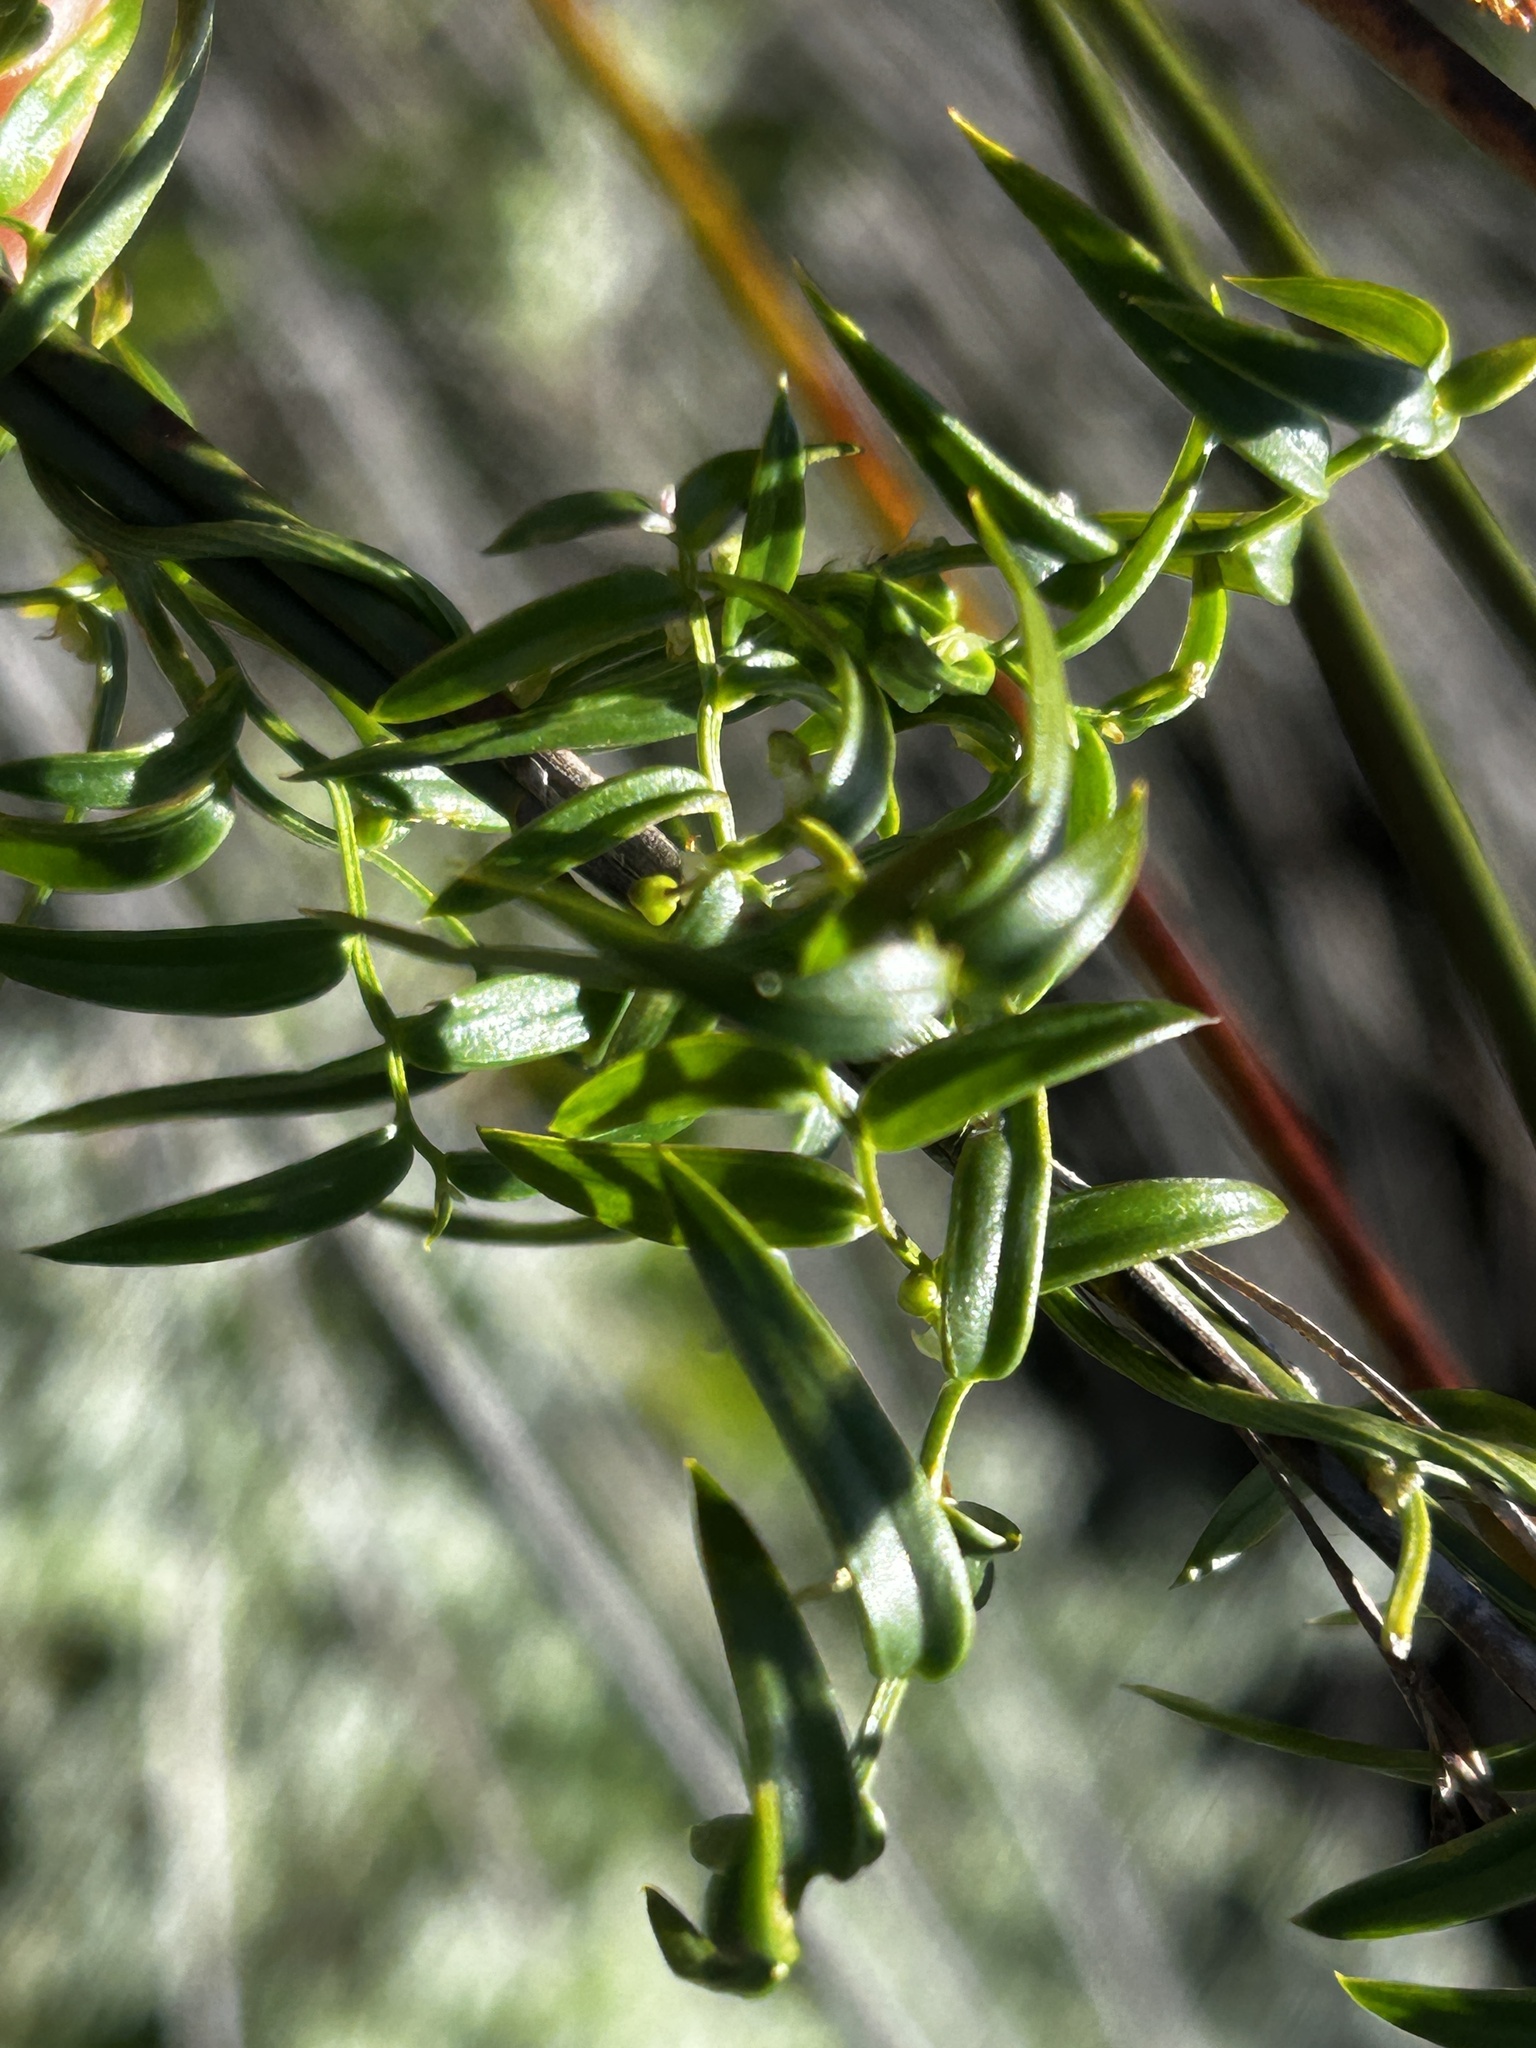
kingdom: Plantae
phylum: Tracheophyta
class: Liliopsida
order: Asparagales
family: Asparagaceae
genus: Asparagus
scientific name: Asparagus volubilis
